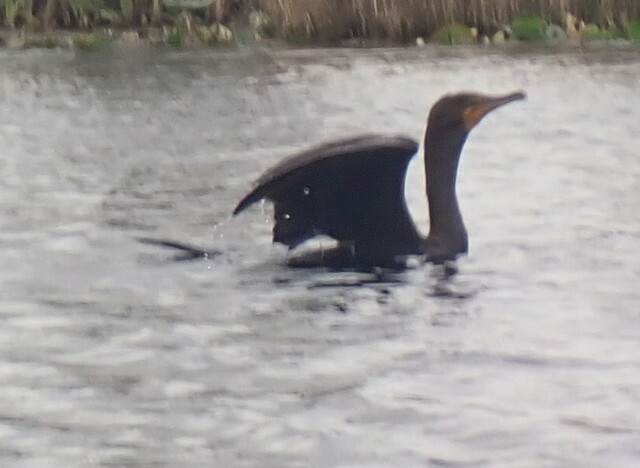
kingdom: Animalia
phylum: Chordata
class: Aves
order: Suliformes
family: Phalacrocoracidae
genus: Phalacrocorax
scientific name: Phalacrocorax auritus
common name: Double-crested cormorant
